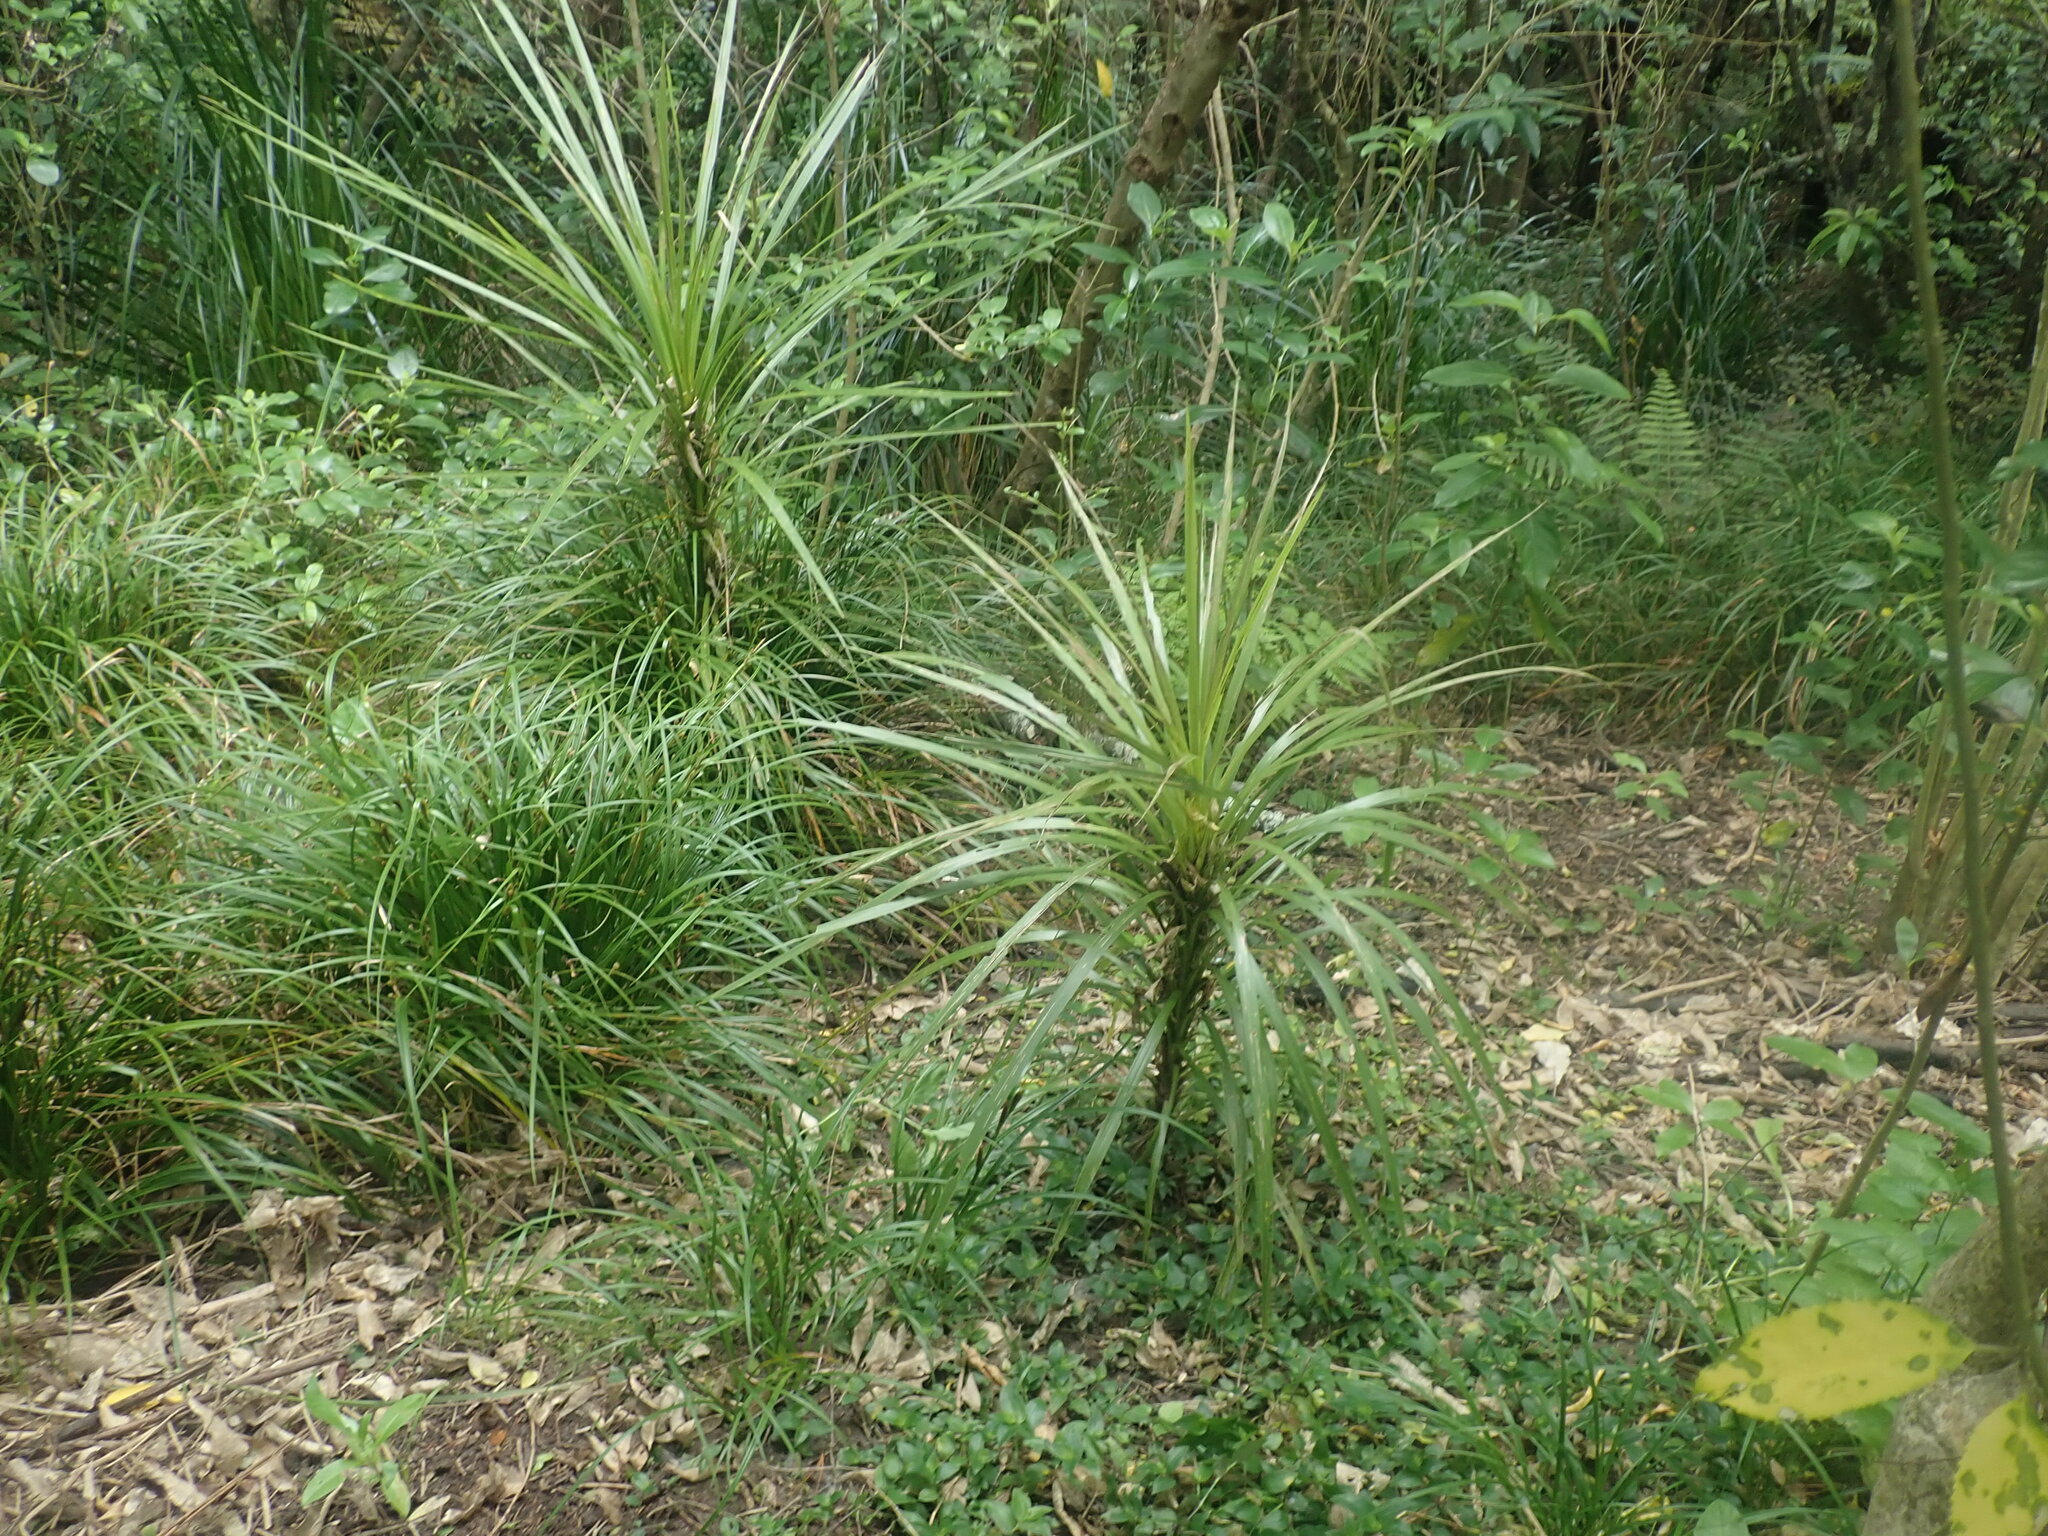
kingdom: Plantae
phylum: Tracheophyta
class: Liliopsida
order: Asparagales
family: Asparagaceae
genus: Cordyline
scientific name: Cordyline australis
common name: Cabbage-palm
